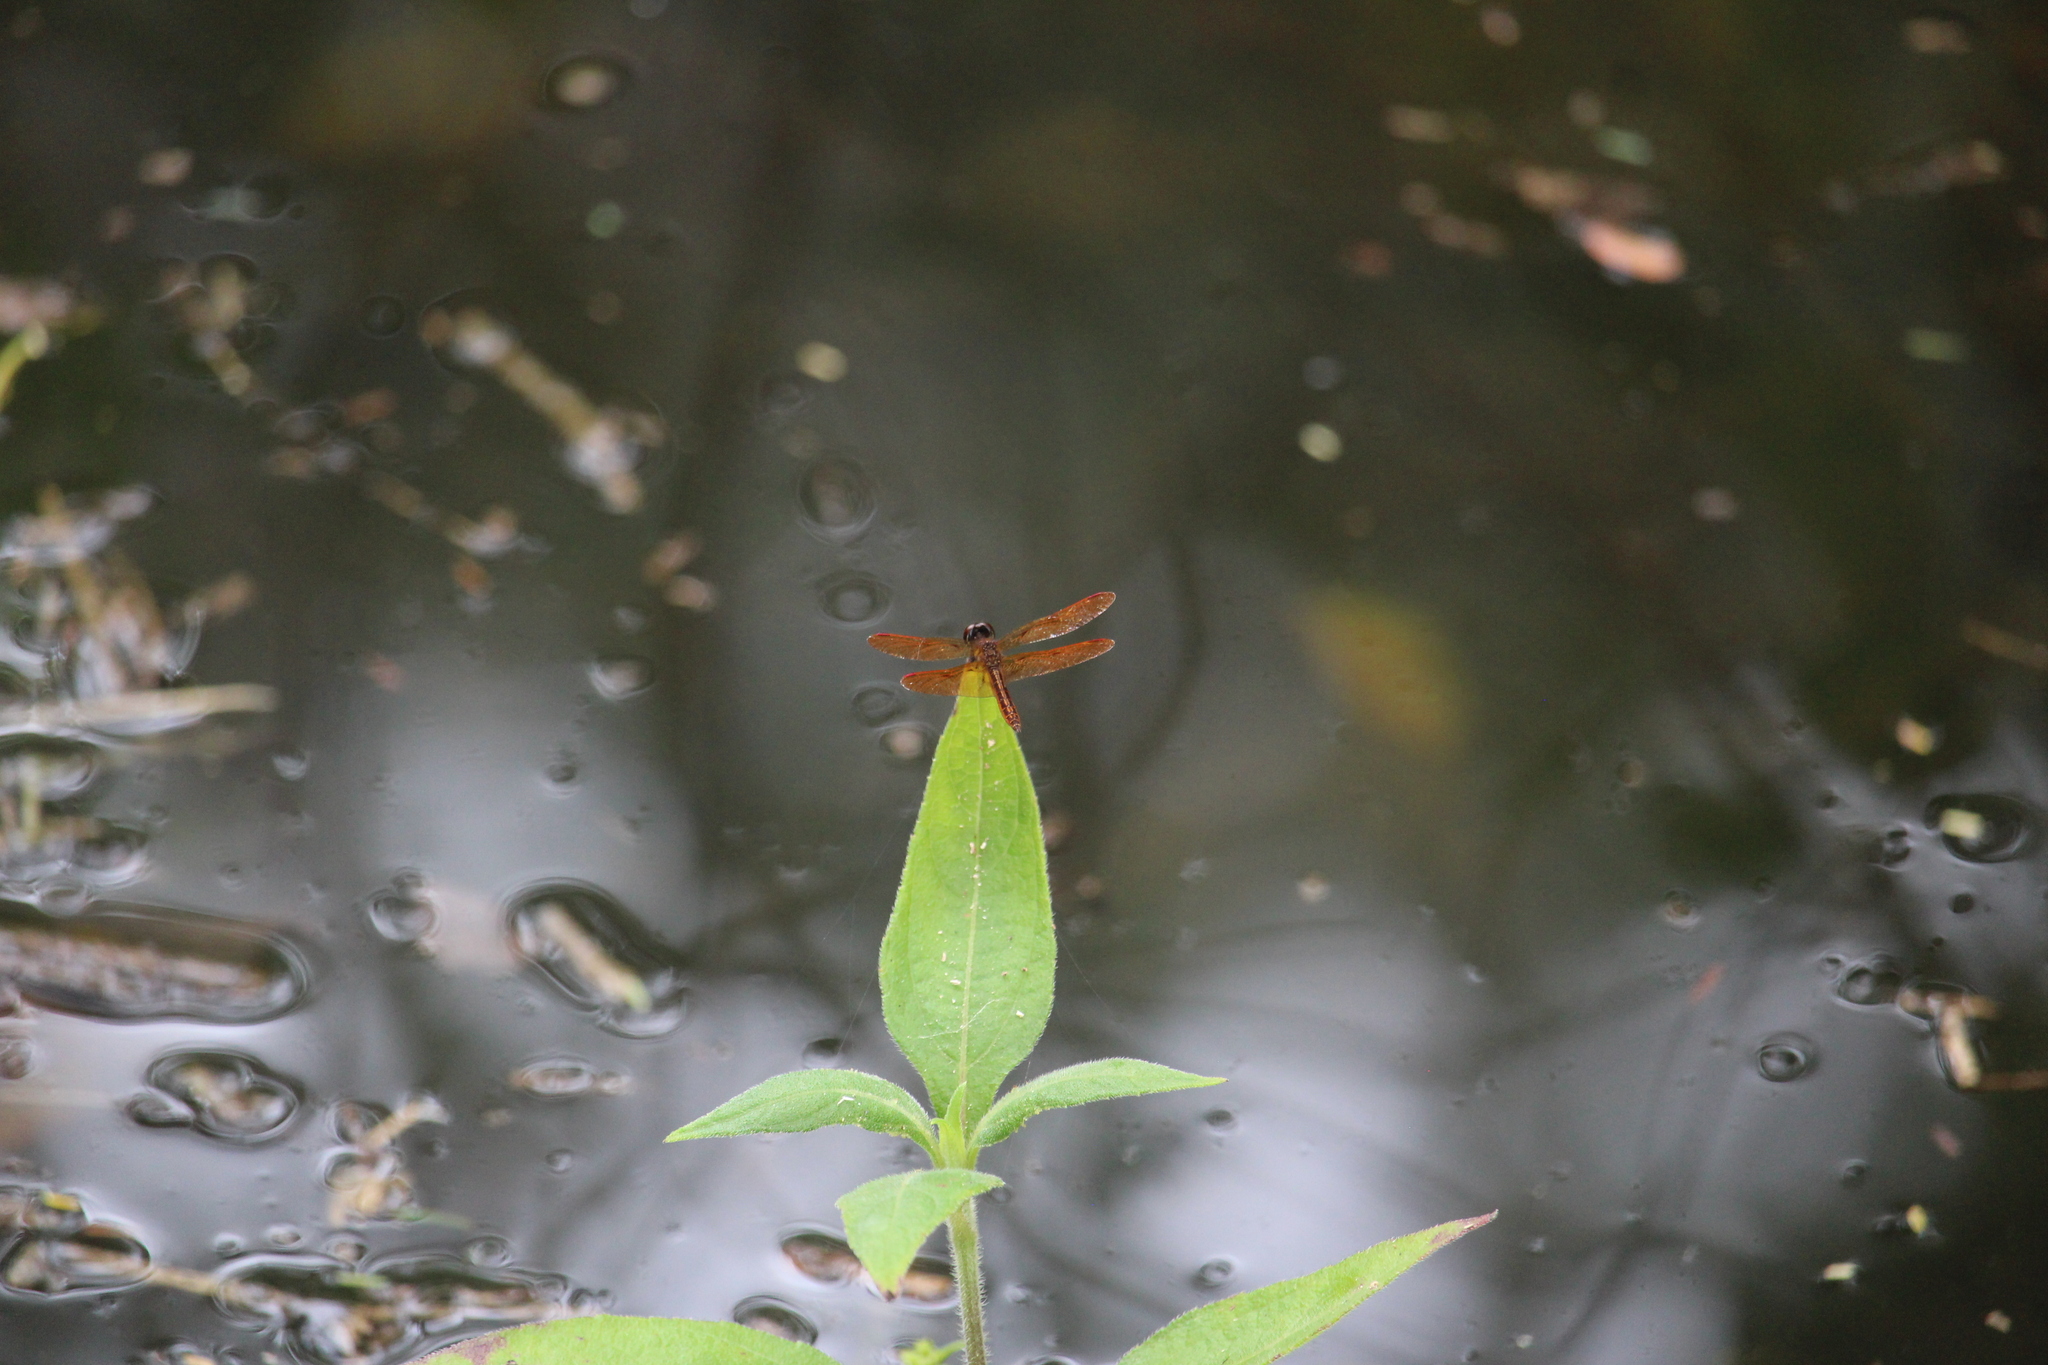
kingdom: Animalia
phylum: Arthropoda
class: Insecta
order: Odonata
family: Libellulidae
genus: Perithemis
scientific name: Perithemis domitia
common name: Slough amberwing
